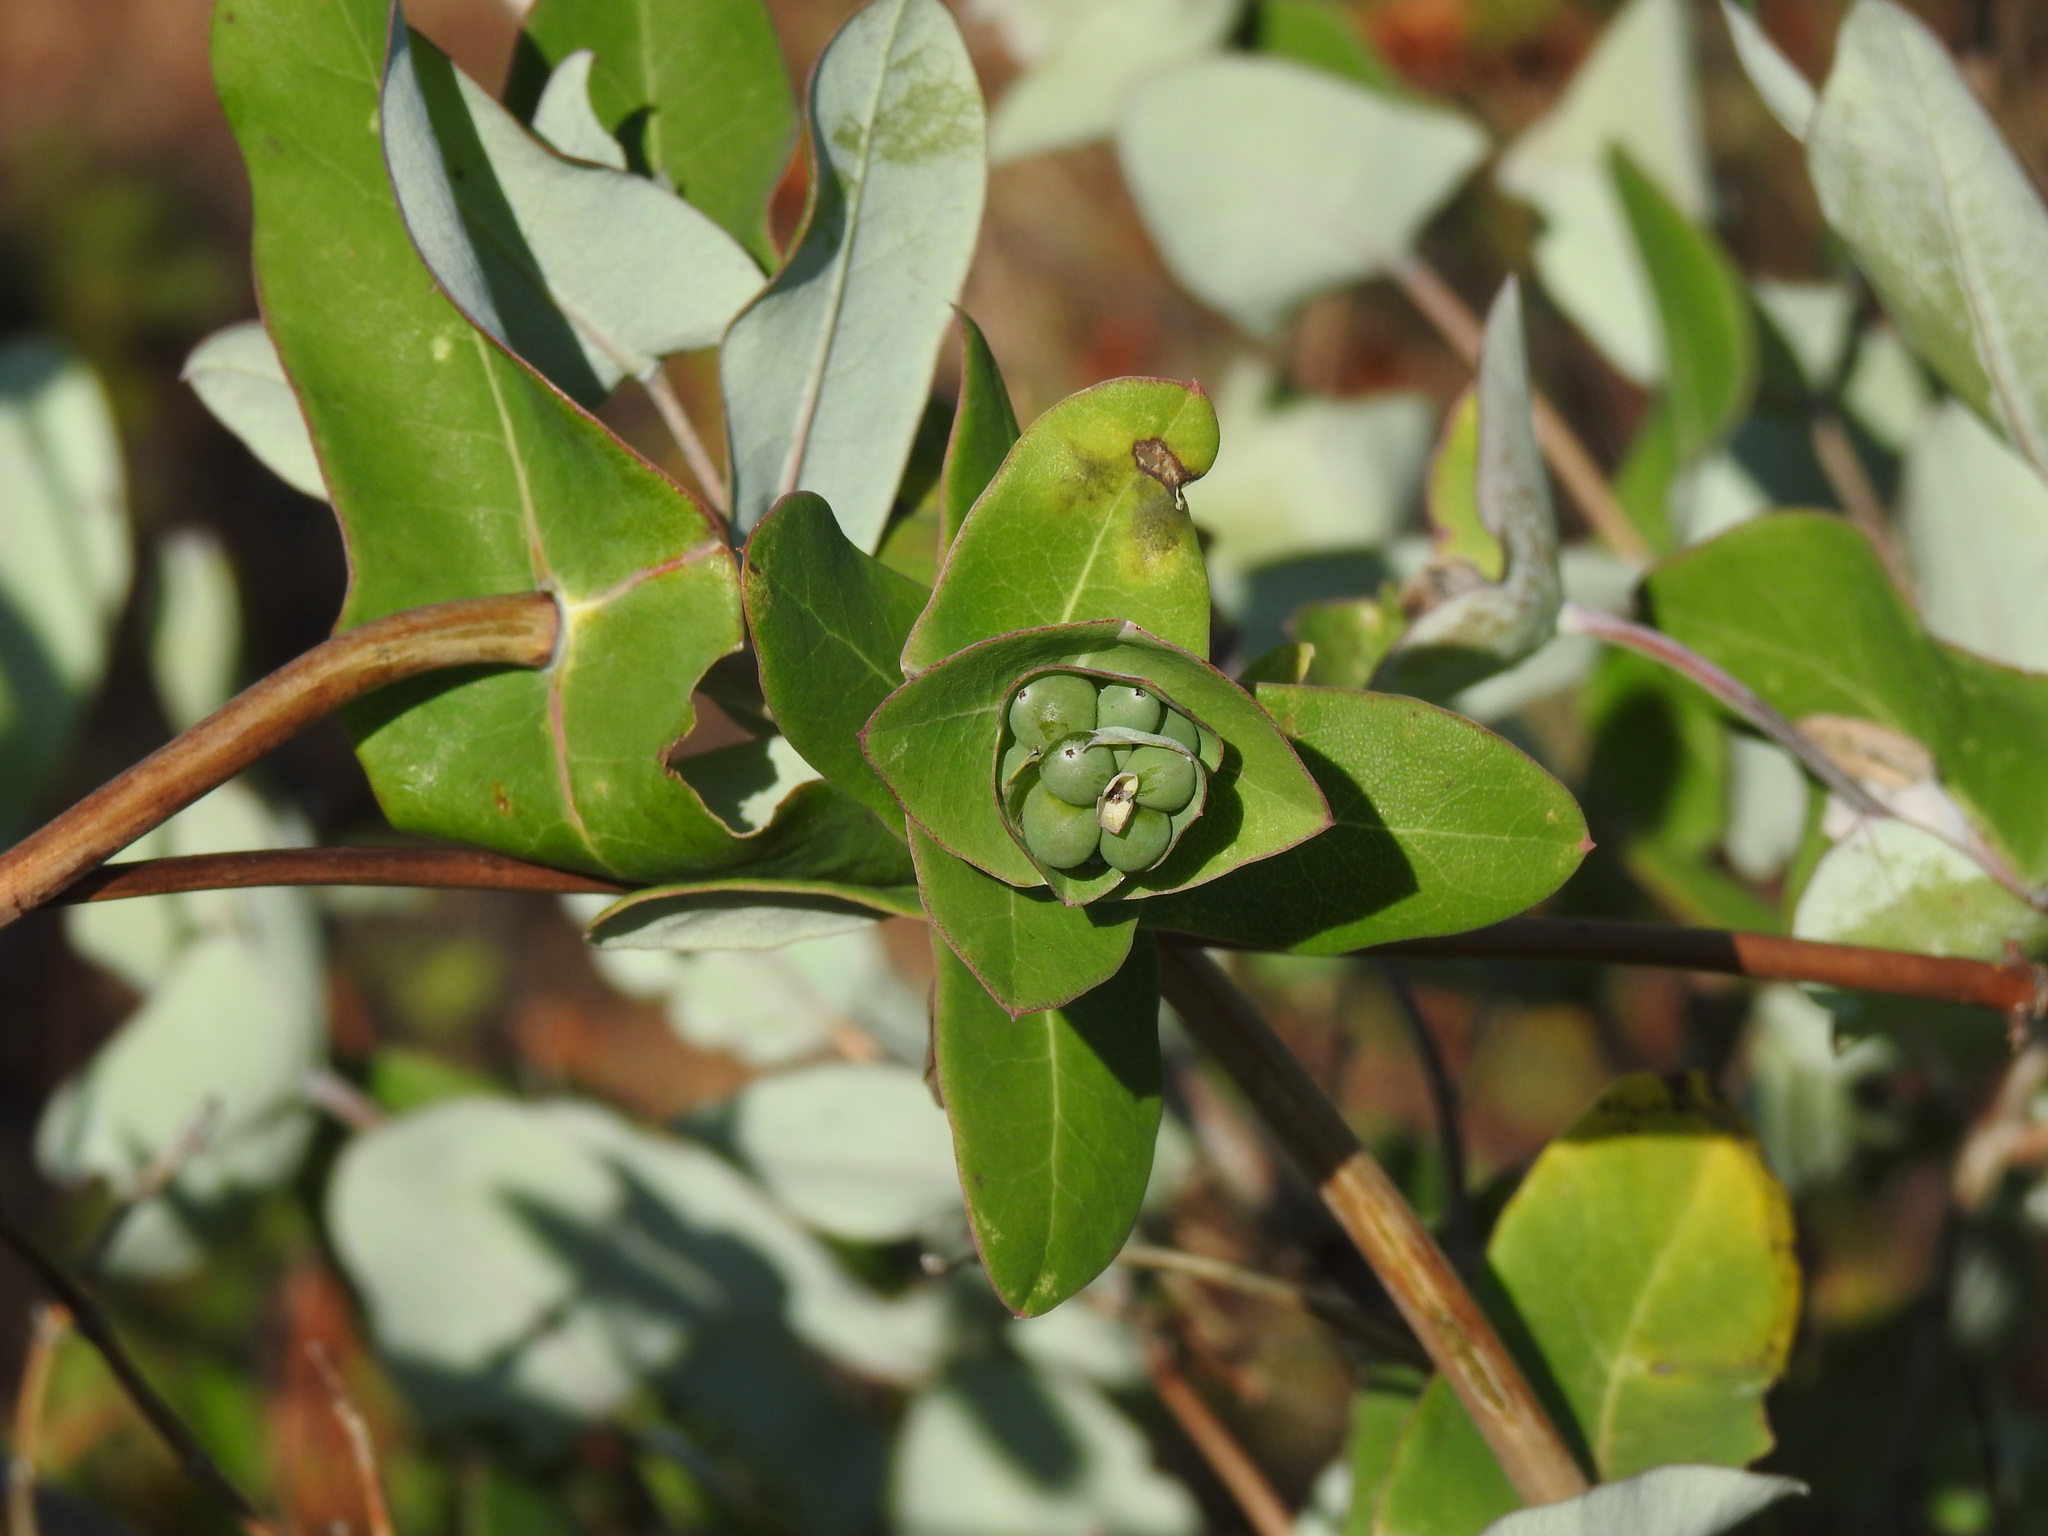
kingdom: Plantae
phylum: Tracheophyta
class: Magnoliopsida
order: Dipsacales
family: Caprifoliaceae
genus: Lonicera
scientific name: Lonicera implexa
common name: Minorca honeysuckle
